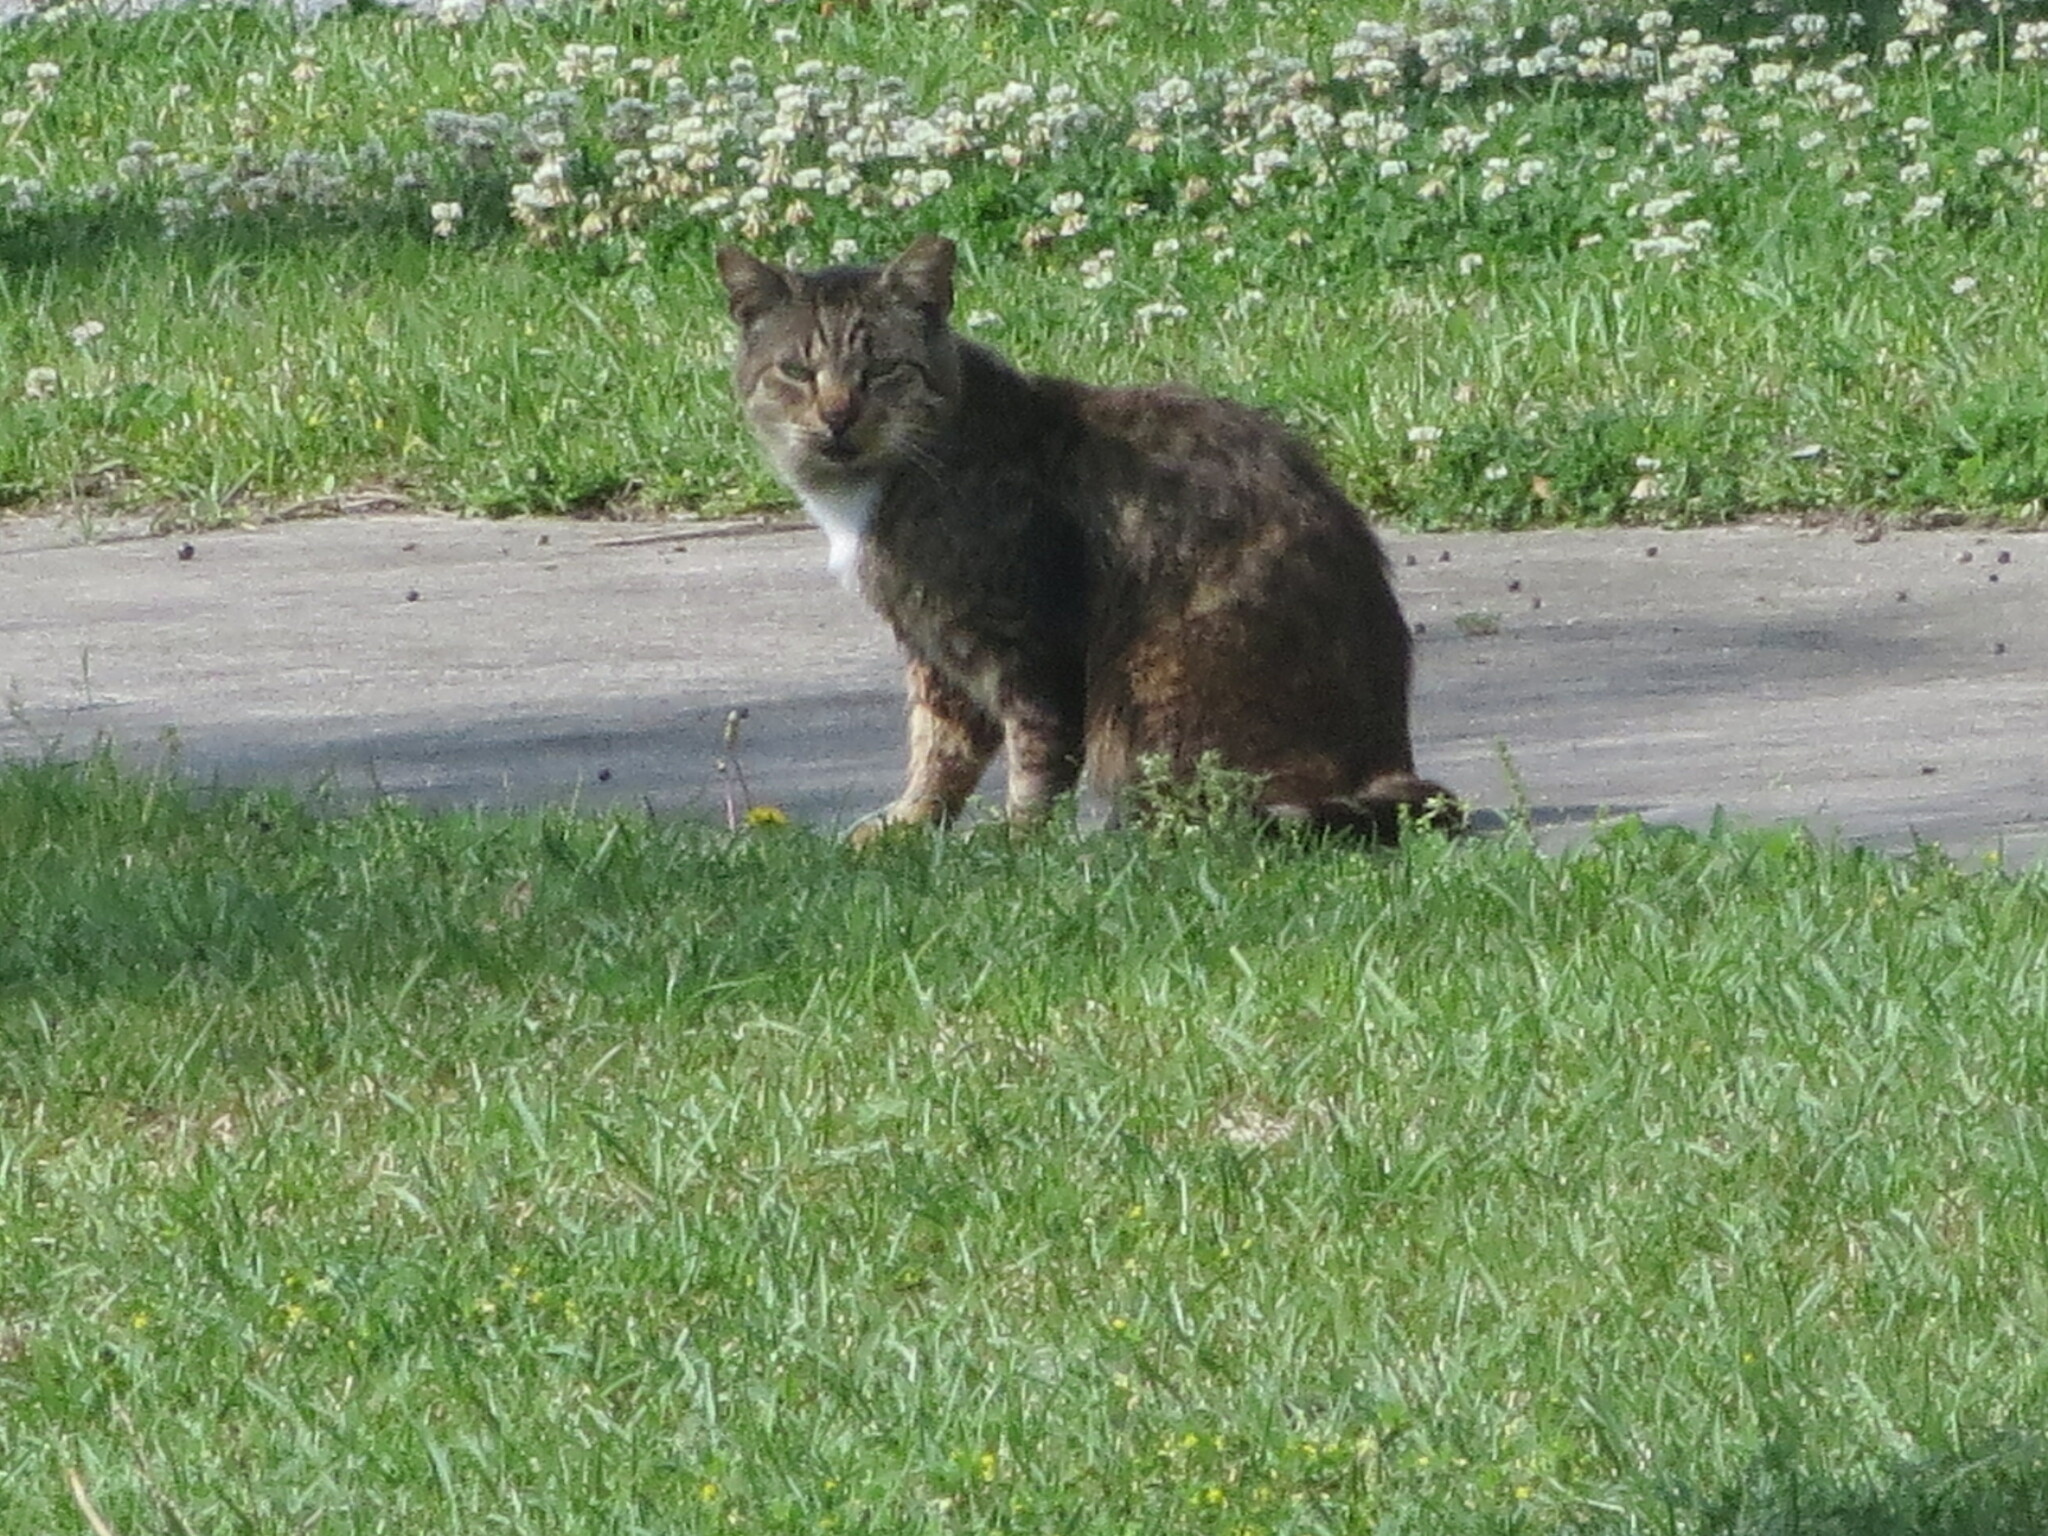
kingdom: Animalia
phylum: Chordata
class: Mammalia
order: Carnivora
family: Felidae
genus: Felis
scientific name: Felis catus
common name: Domestic cat
